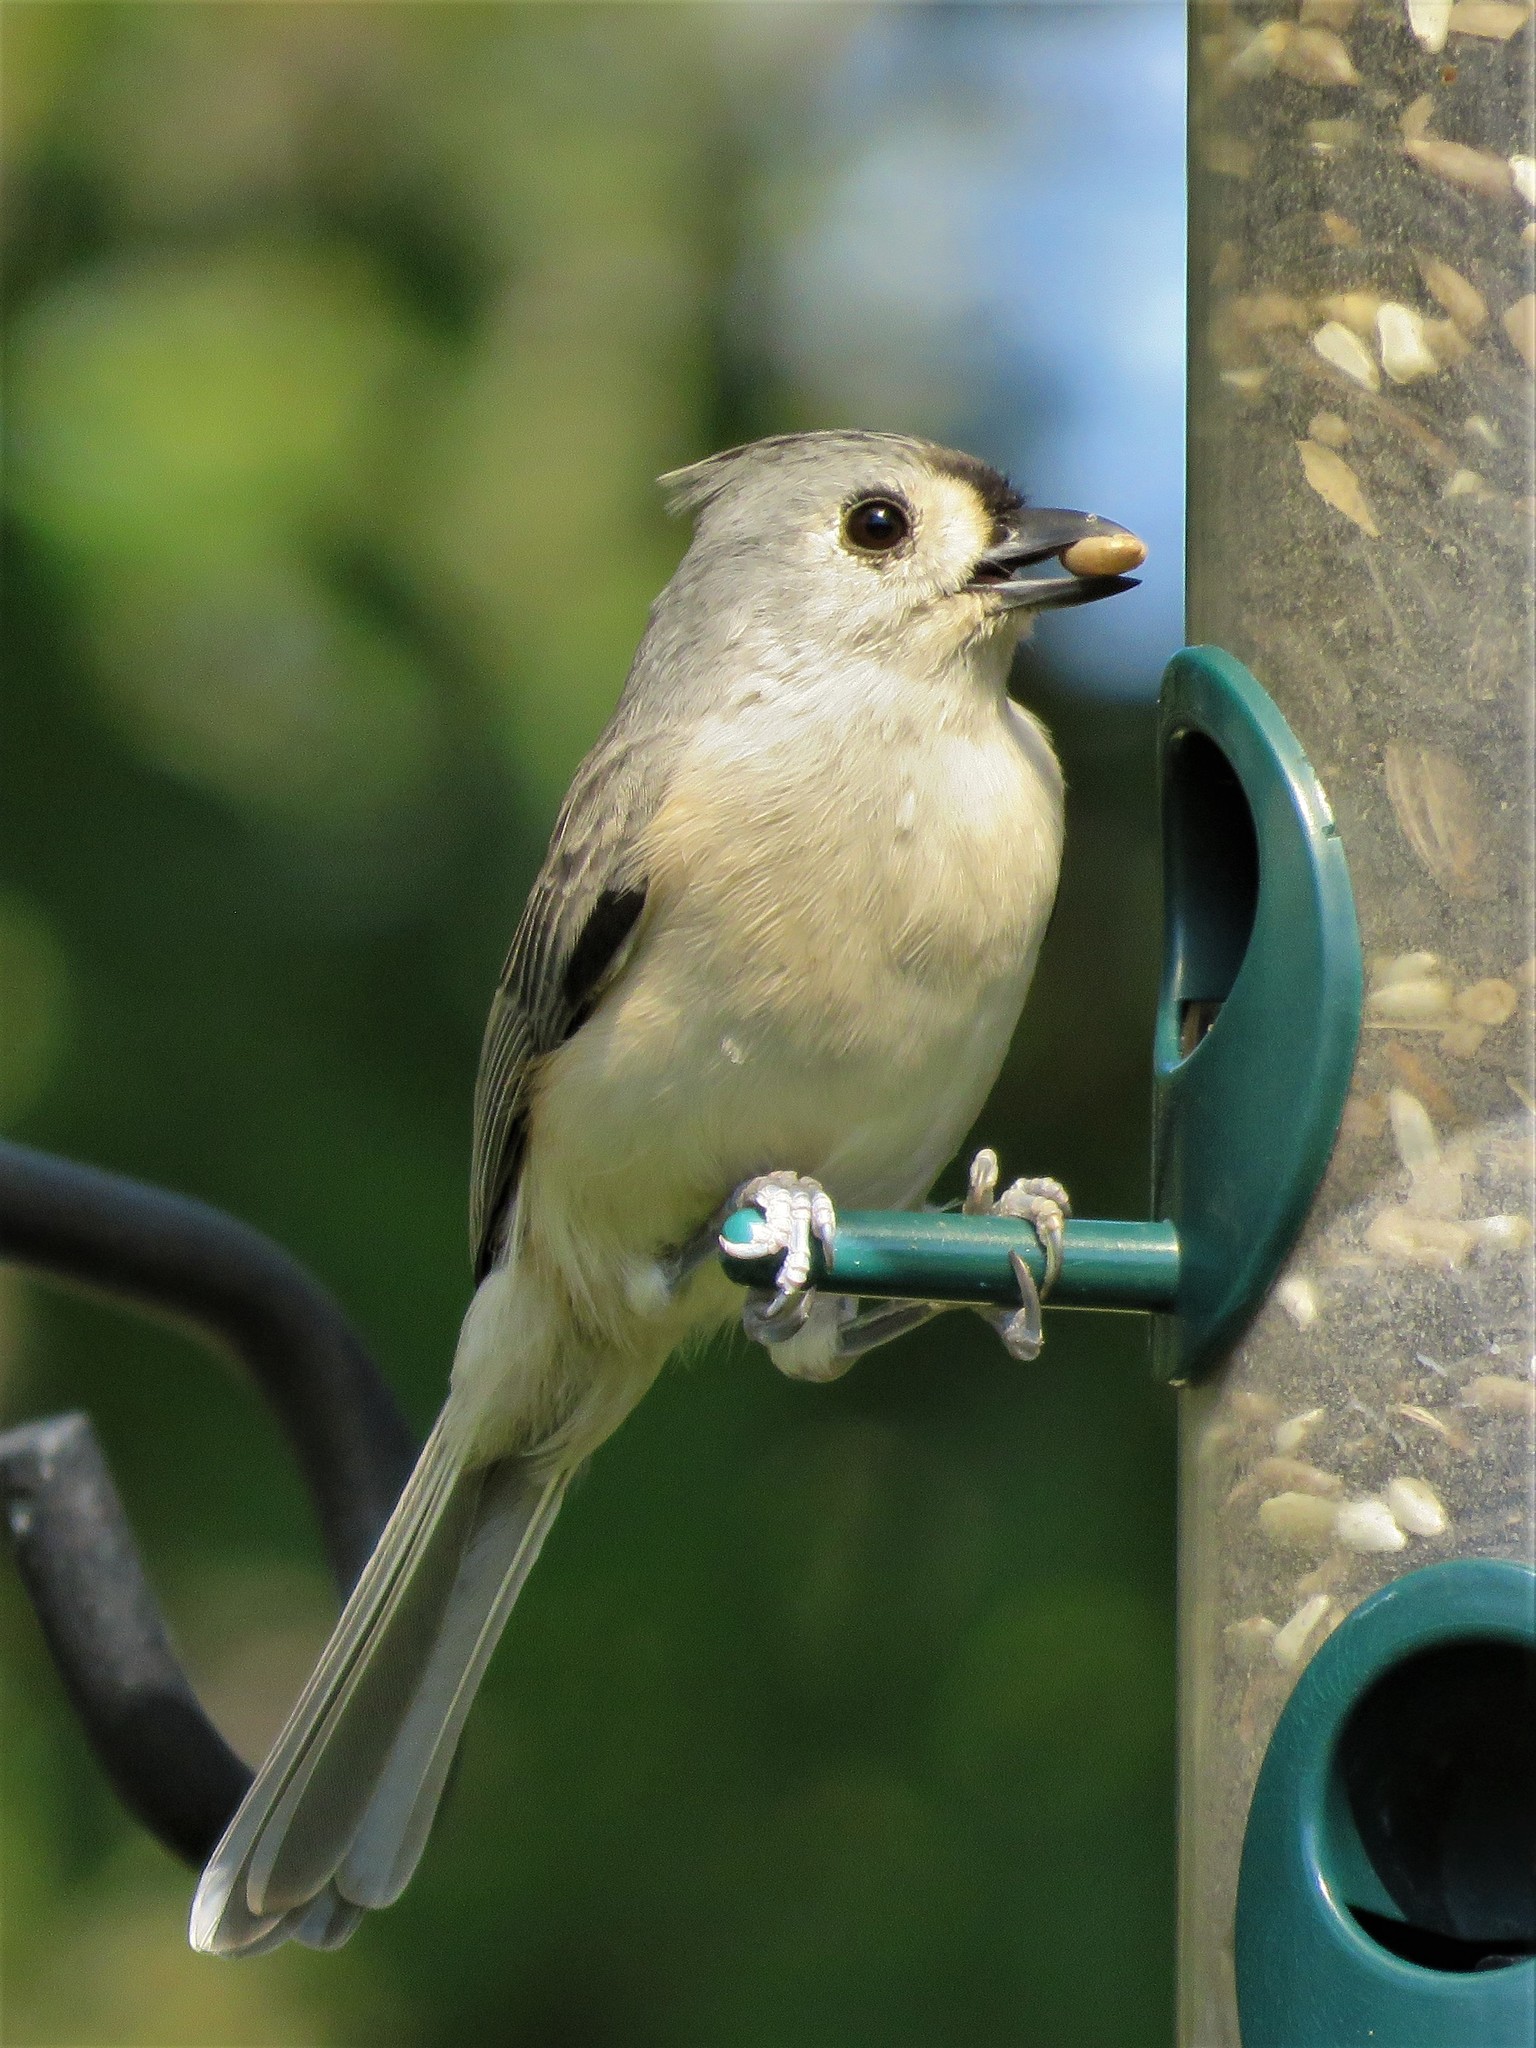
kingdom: Animalia
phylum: Chordata
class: Aves
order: Passeriformes
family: Paridae
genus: Baeolophus
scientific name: Baeolophus bicolor
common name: Tufted titmouse
